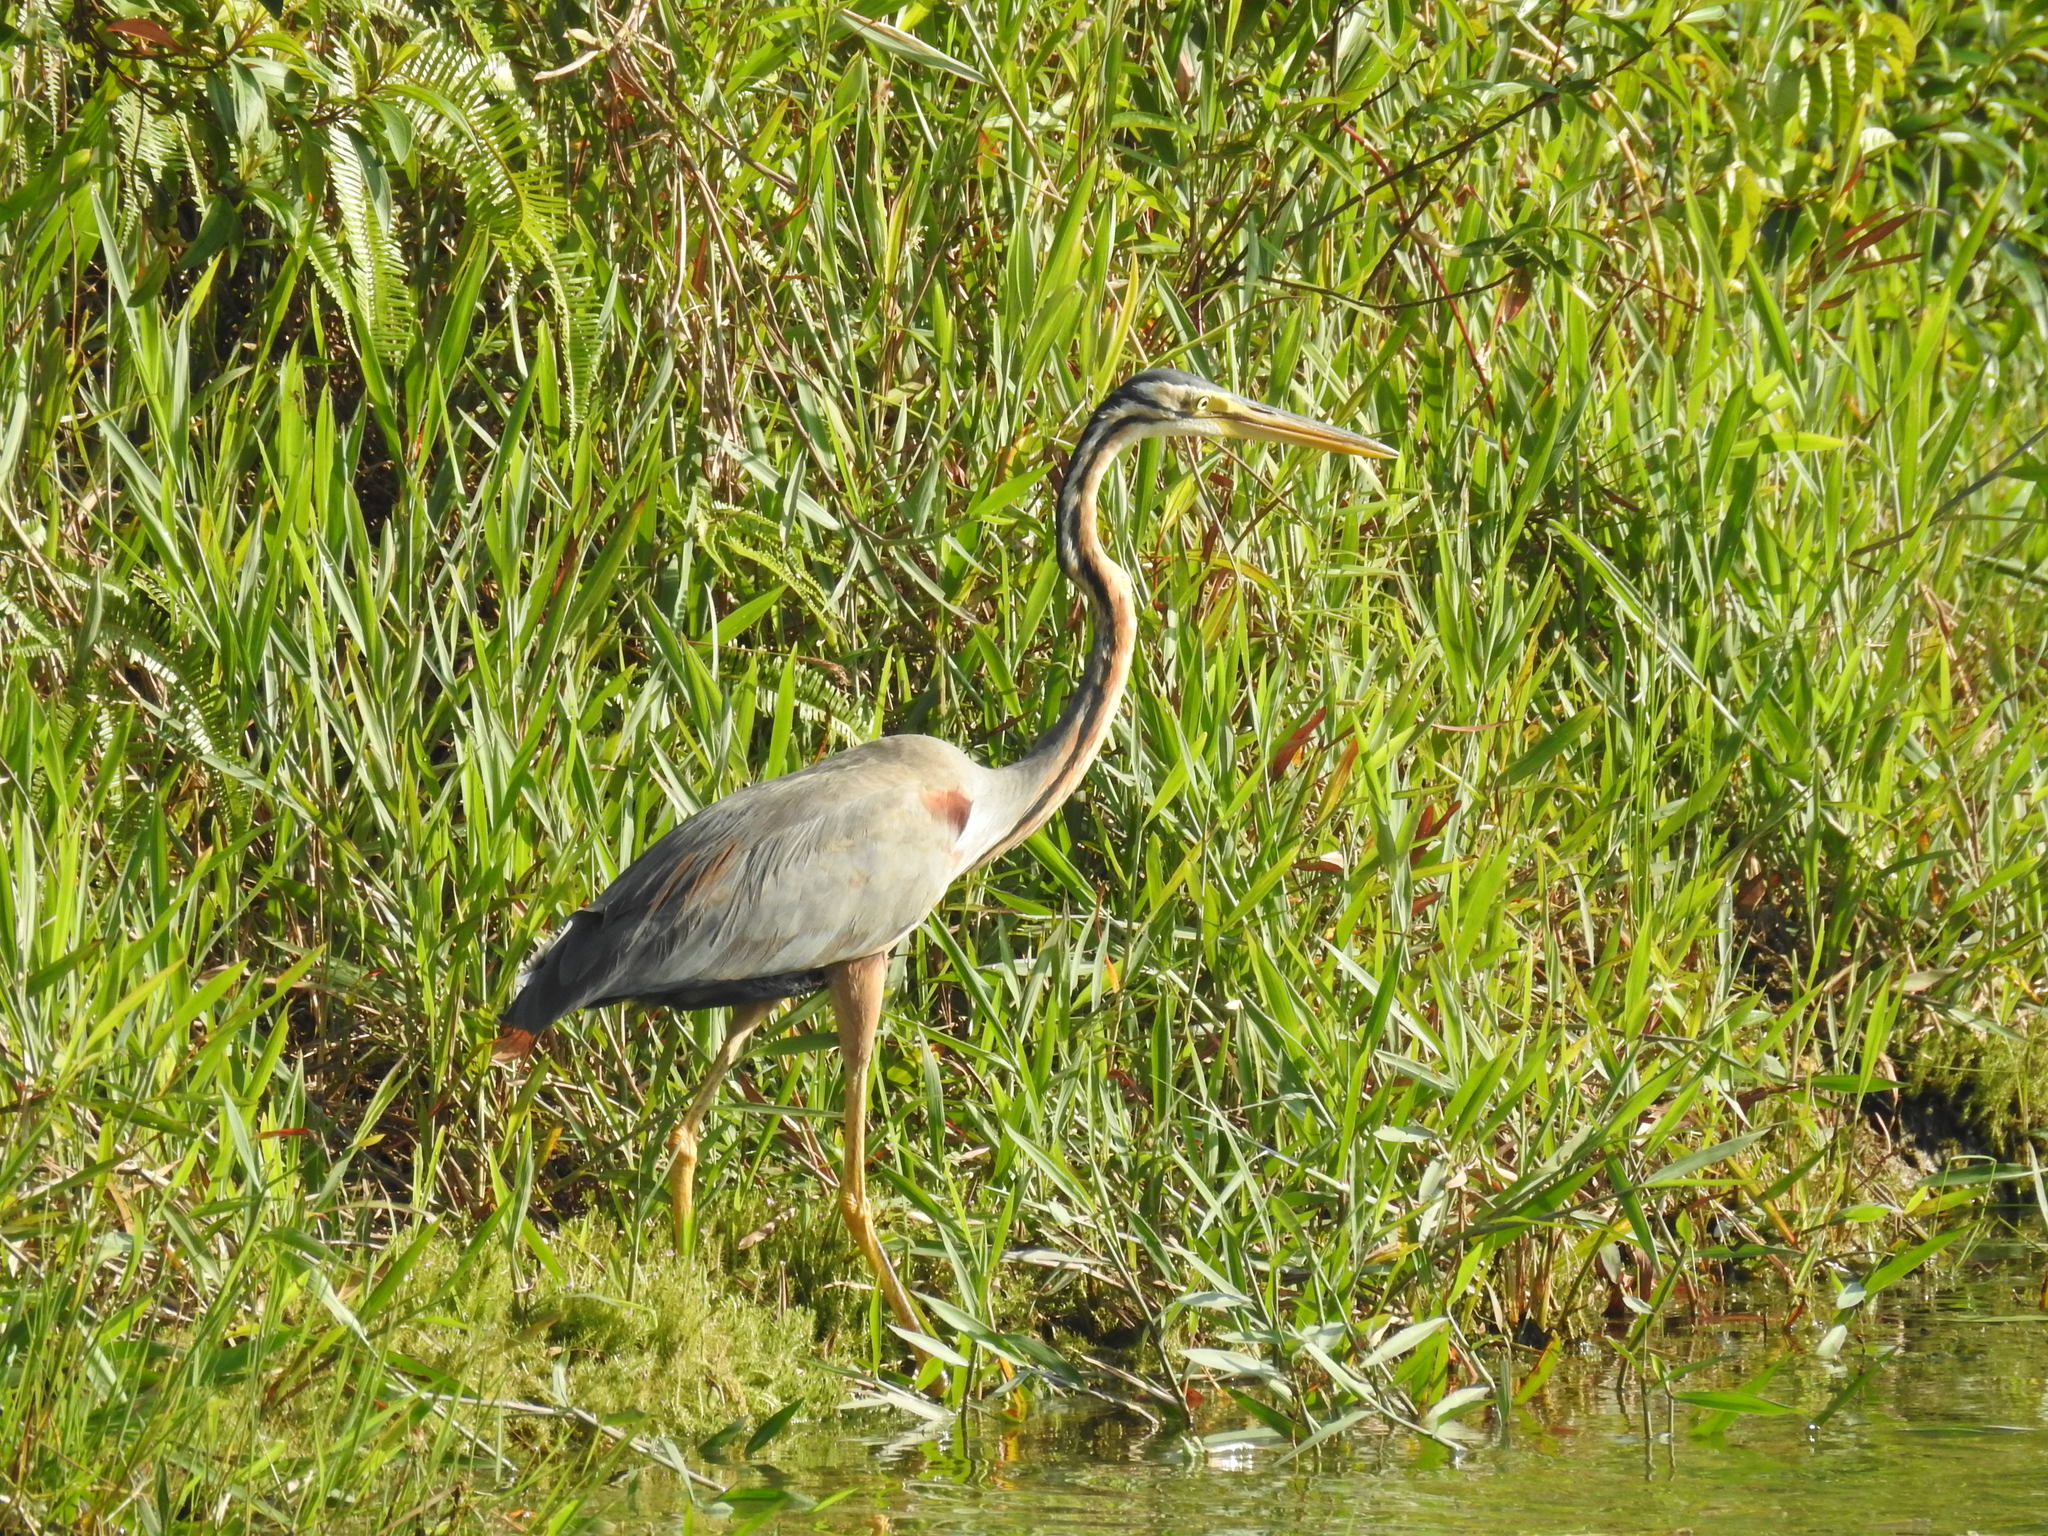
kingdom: Animalia
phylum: Chordata
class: Aves
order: Pelecaniformes
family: Ardeidae
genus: Ardea
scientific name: Ardea purpurea
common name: Purple heron
